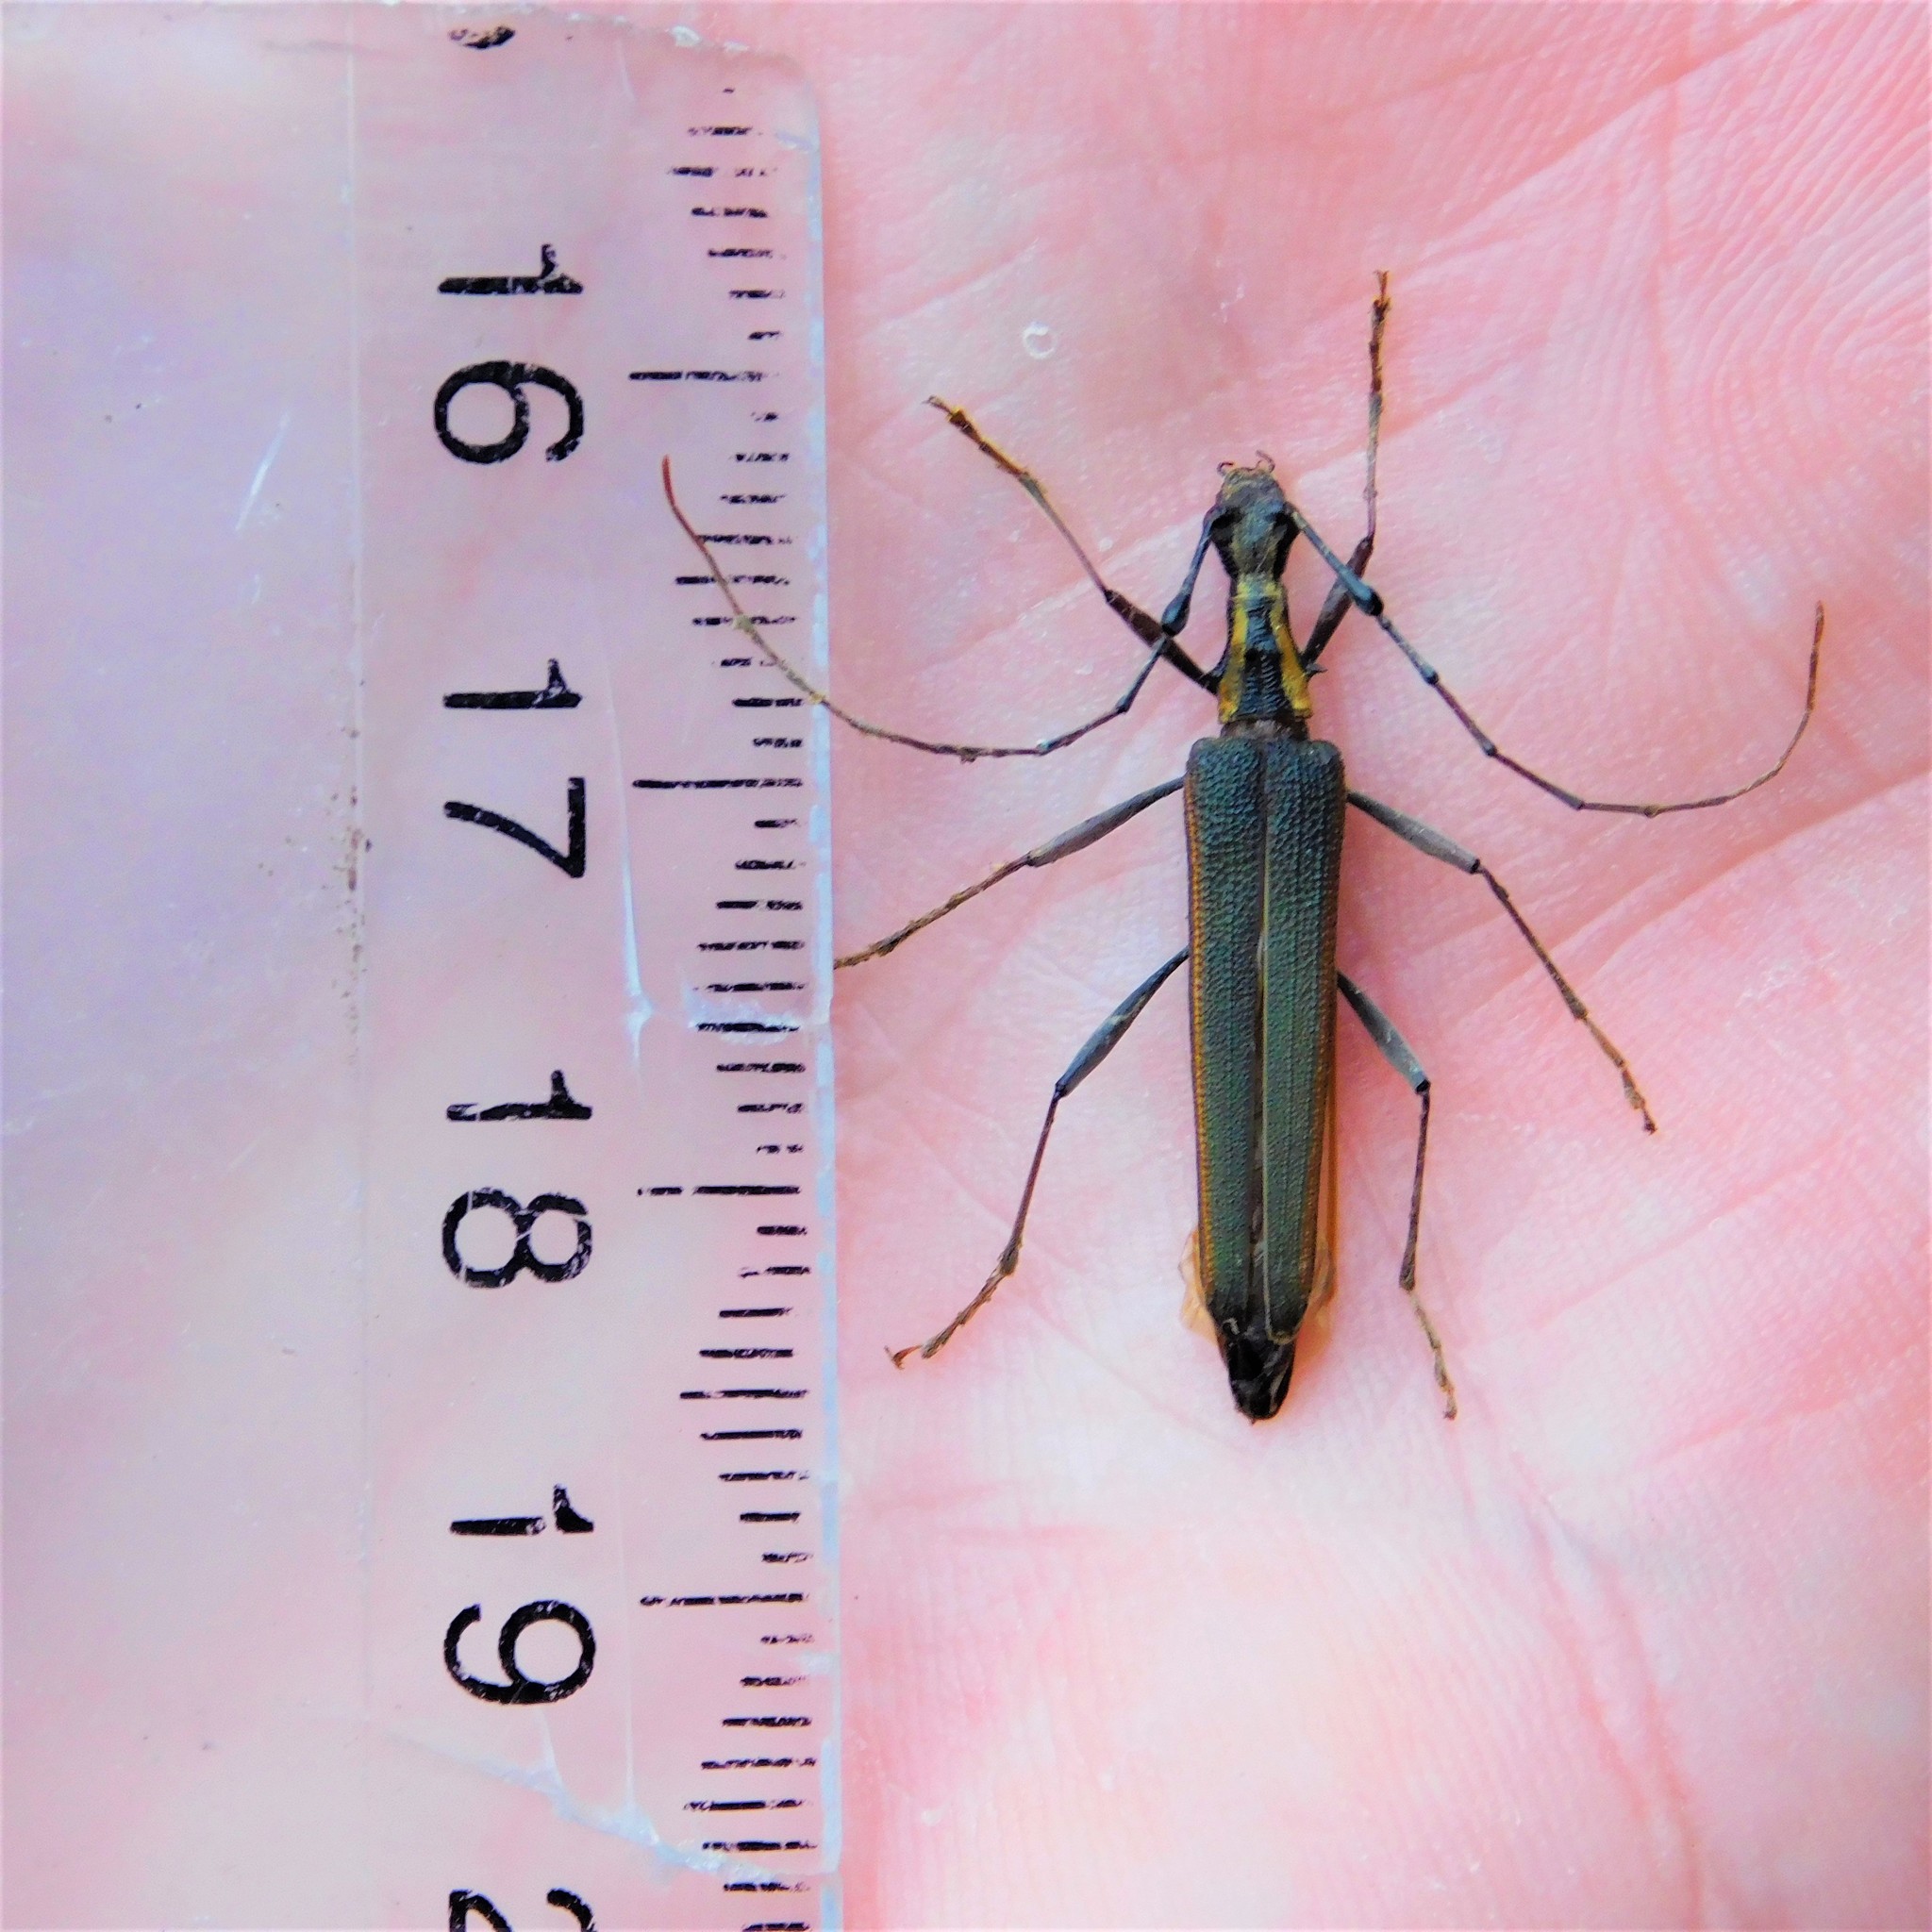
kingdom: Animalia
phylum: Arthropoda
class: Insecta
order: Coleoptera
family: Cerambycidae
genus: Calliprason
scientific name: Calliprason marginatum
